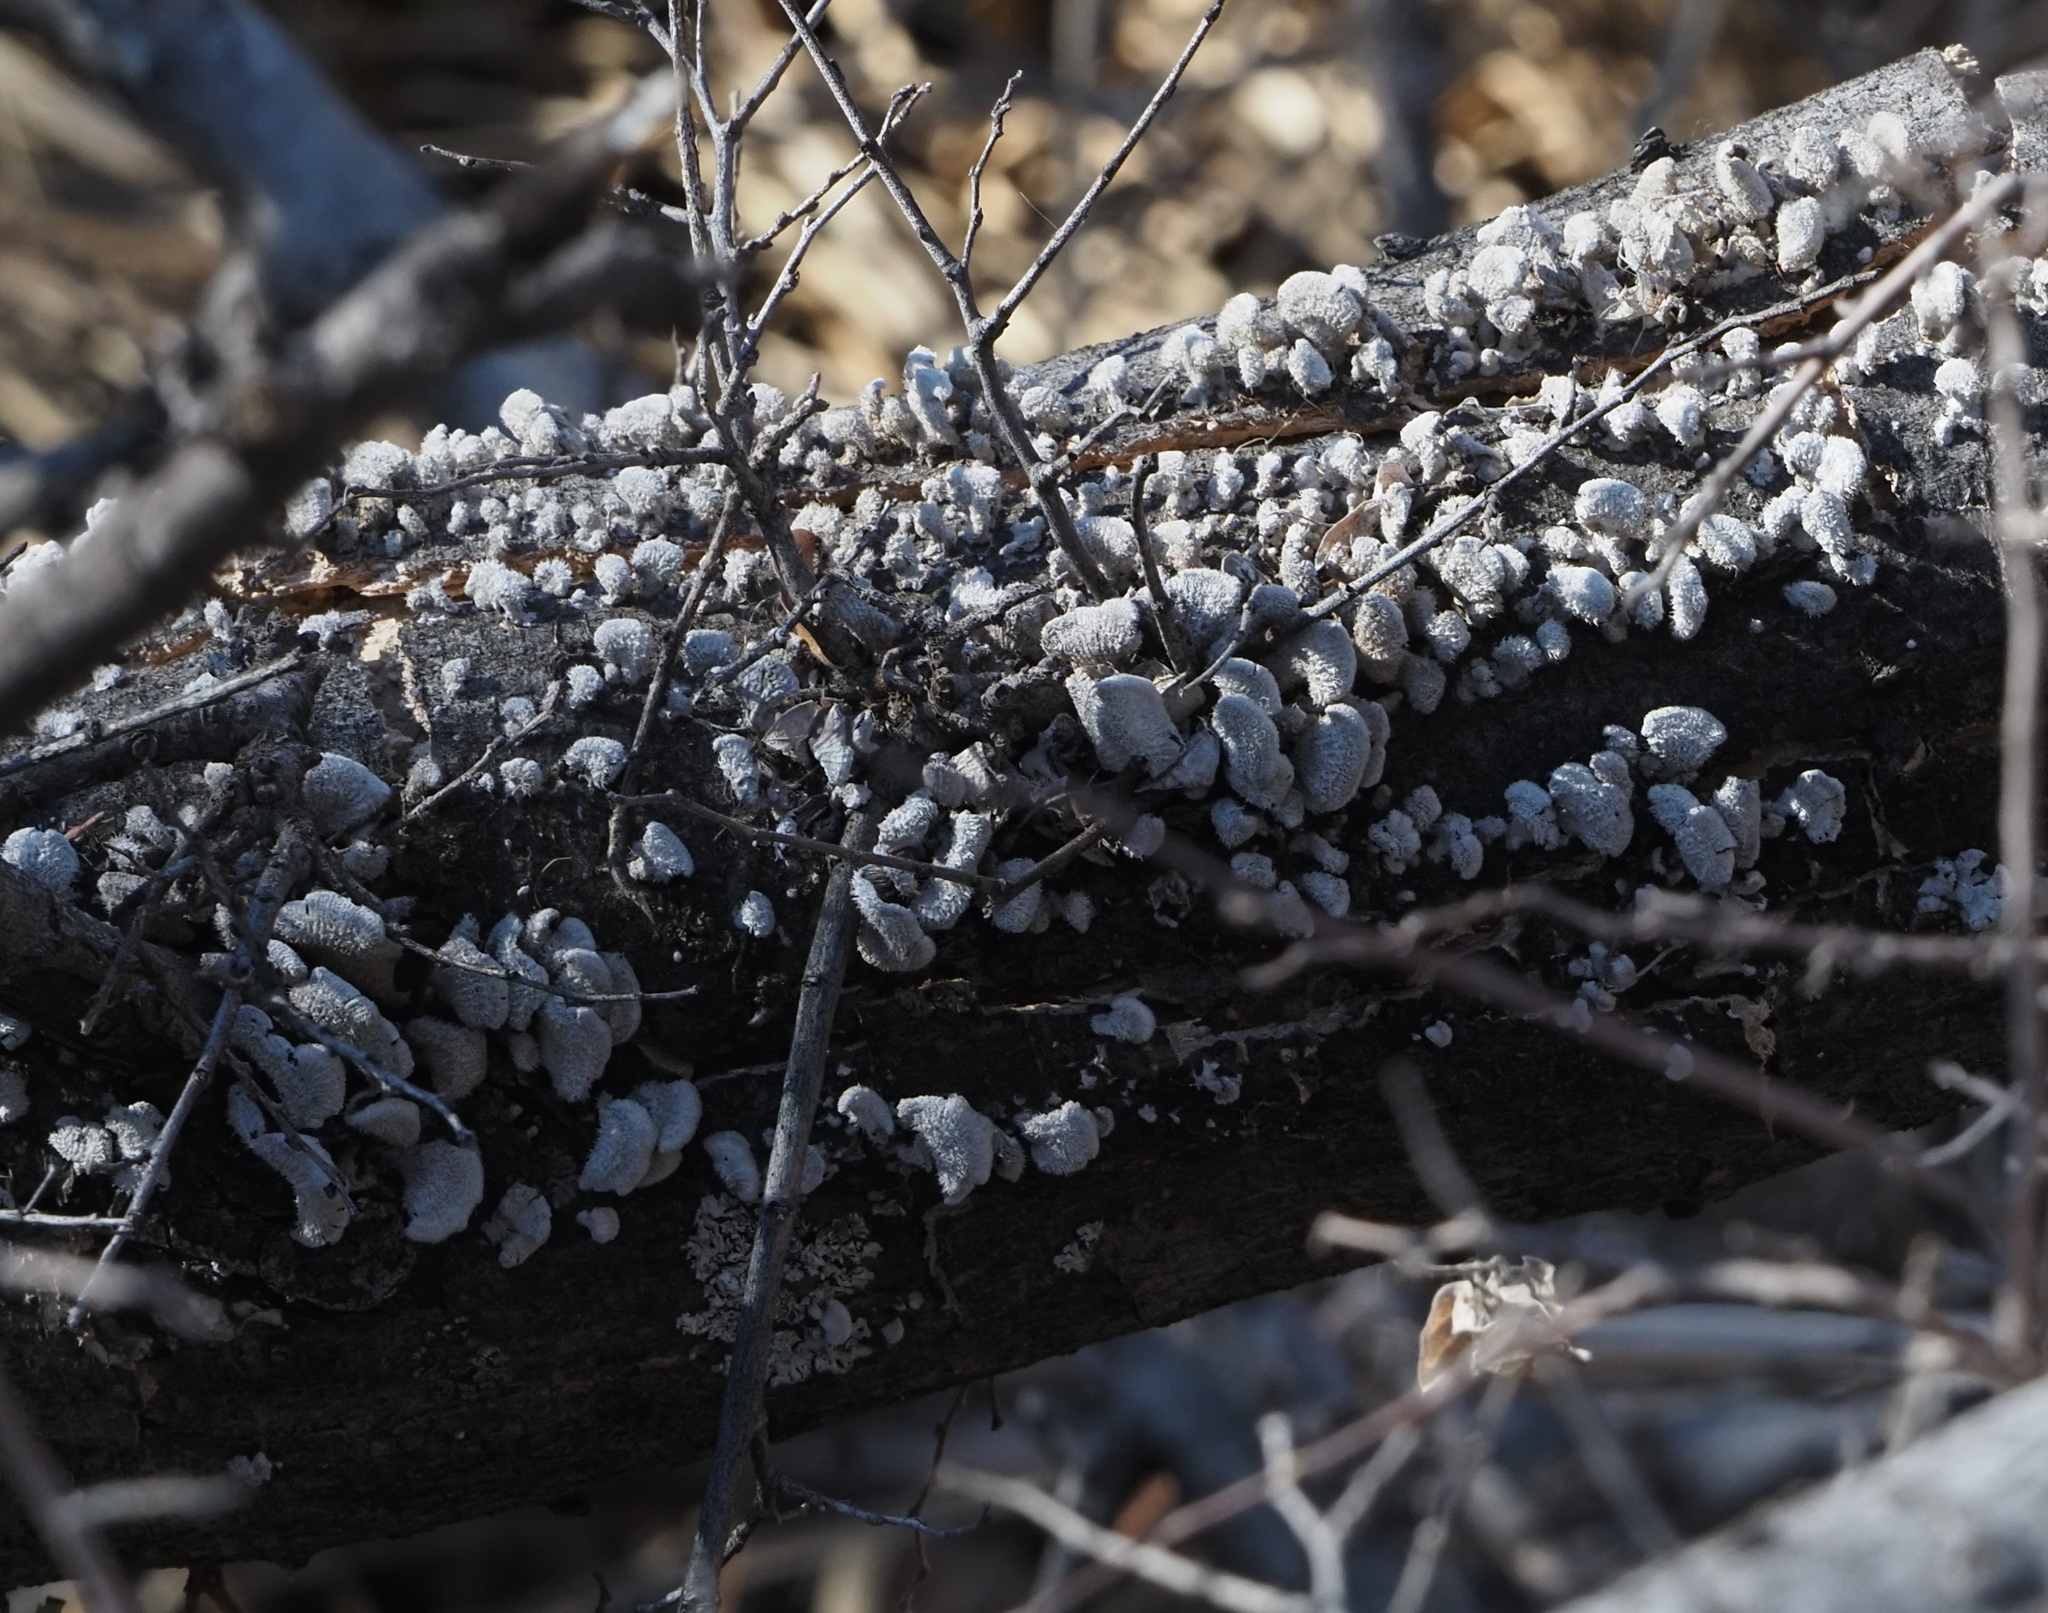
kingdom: Fungi
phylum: Basidiomycota
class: Agaricomycetes
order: Agaricales
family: Schizophyllaceae
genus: Schizophyllum
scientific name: Schizophyllum commune
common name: Common porecrust
